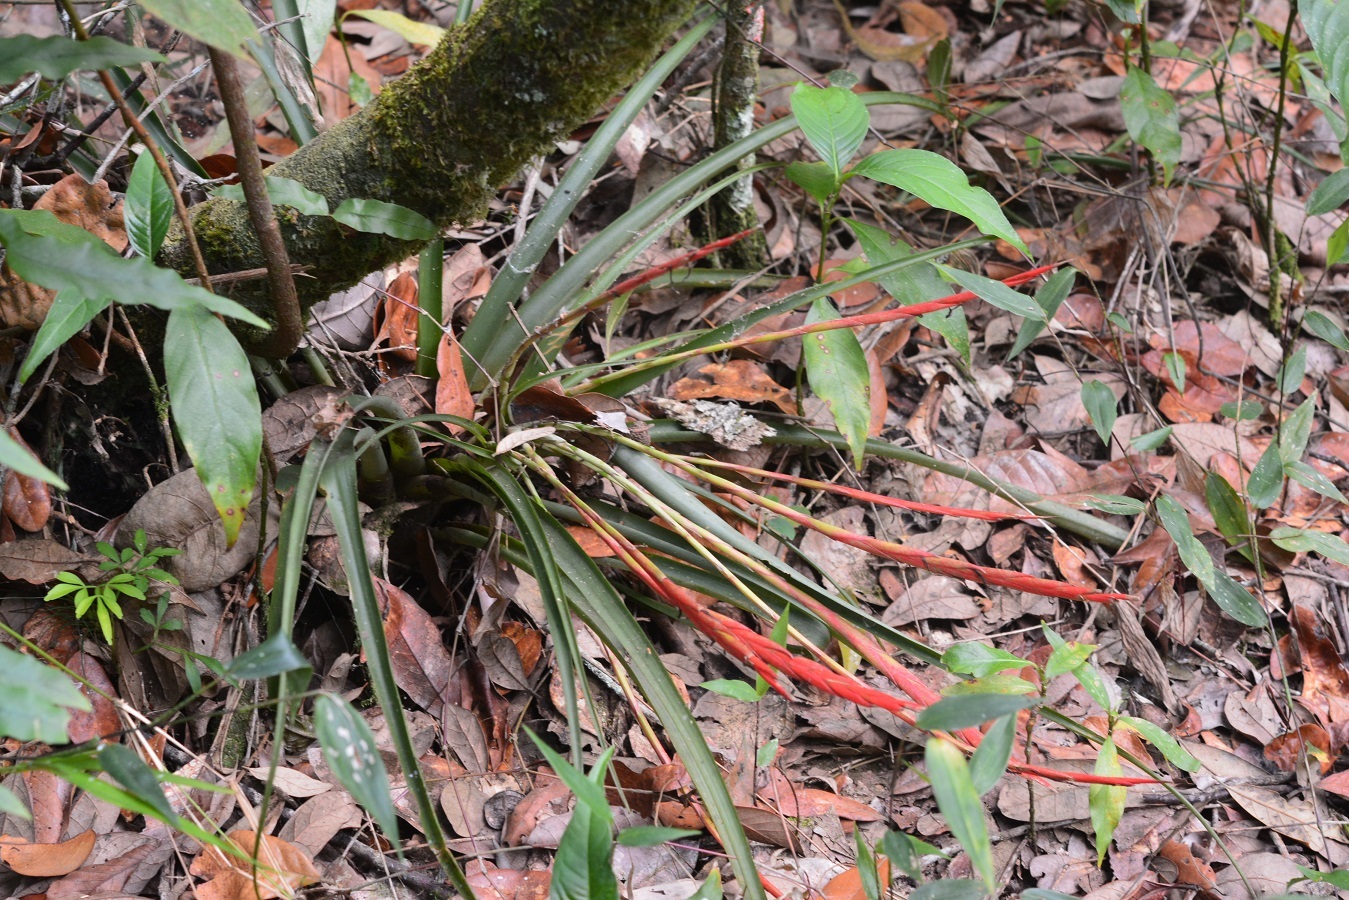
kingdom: Plantae
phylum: Tracheophyta
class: Liliopsida
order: Poales
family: Bromeliaceae
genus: Tillandsia
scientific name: Tillandsia flabellata
